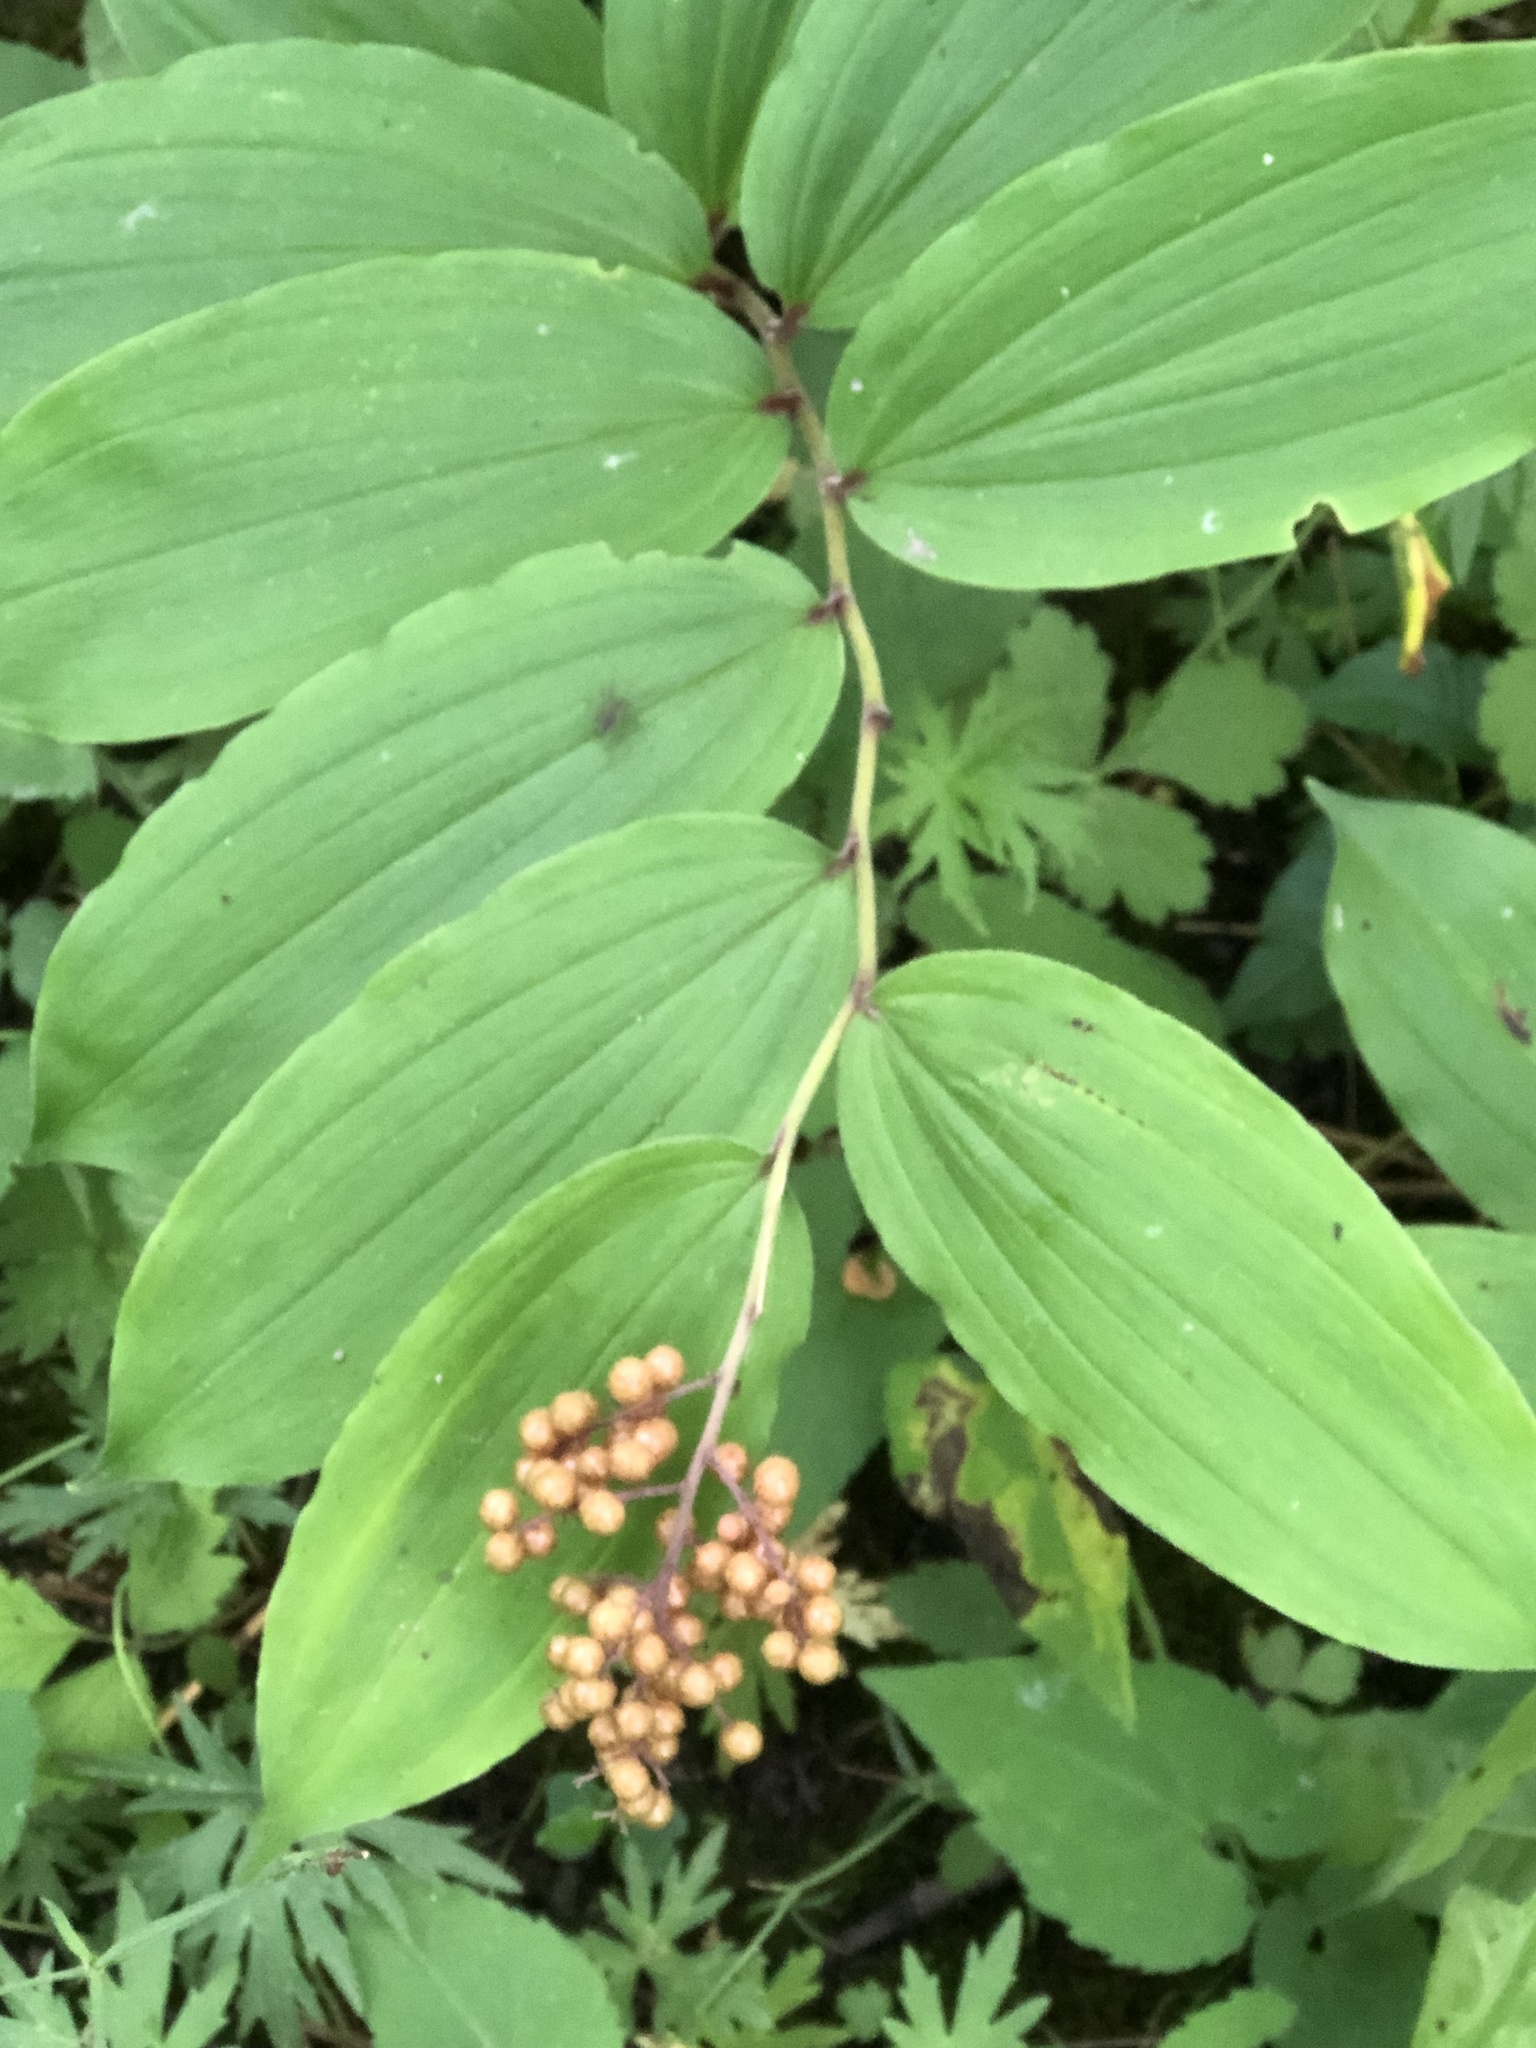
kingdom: Plantae
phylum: Tracheophyta
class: Liliopsida
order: Asparagales
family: Asparagaceae
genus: Maianthemum
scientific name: Maianthemum racemosum
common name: False spikenard
